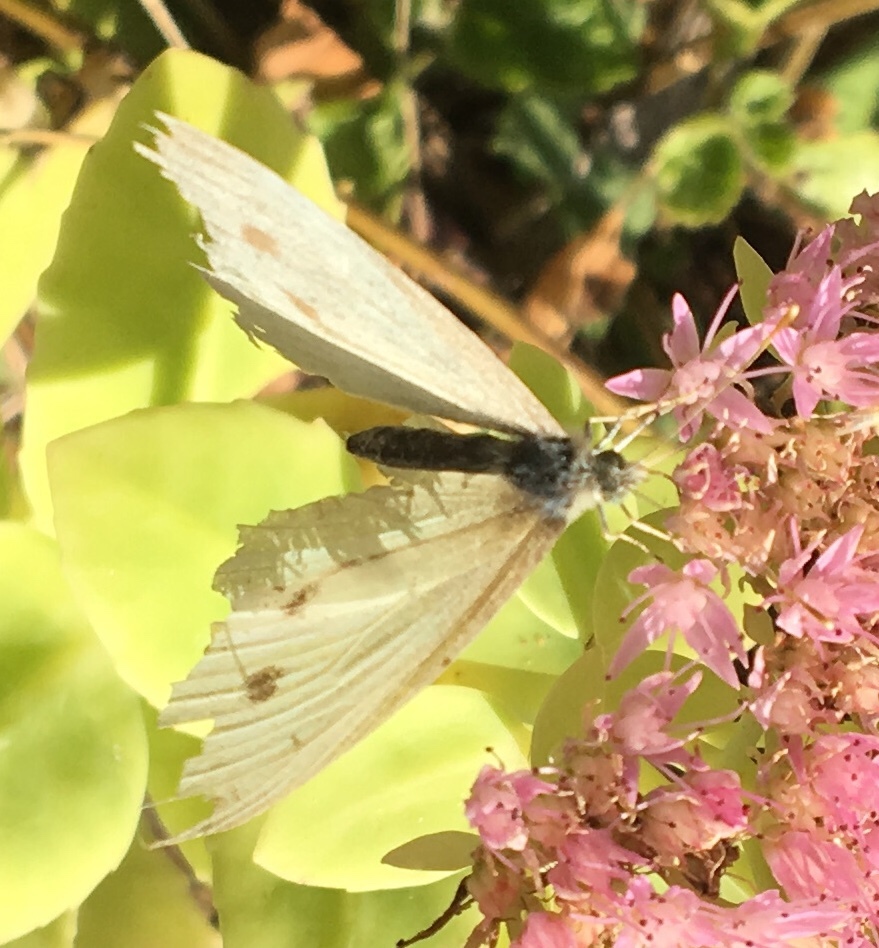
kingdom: Animalia
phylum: Arthropoda
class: Insecta
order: Lepidoptera
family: Pieridae
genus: Pieris
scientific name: Pieris rapae
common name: Small white
